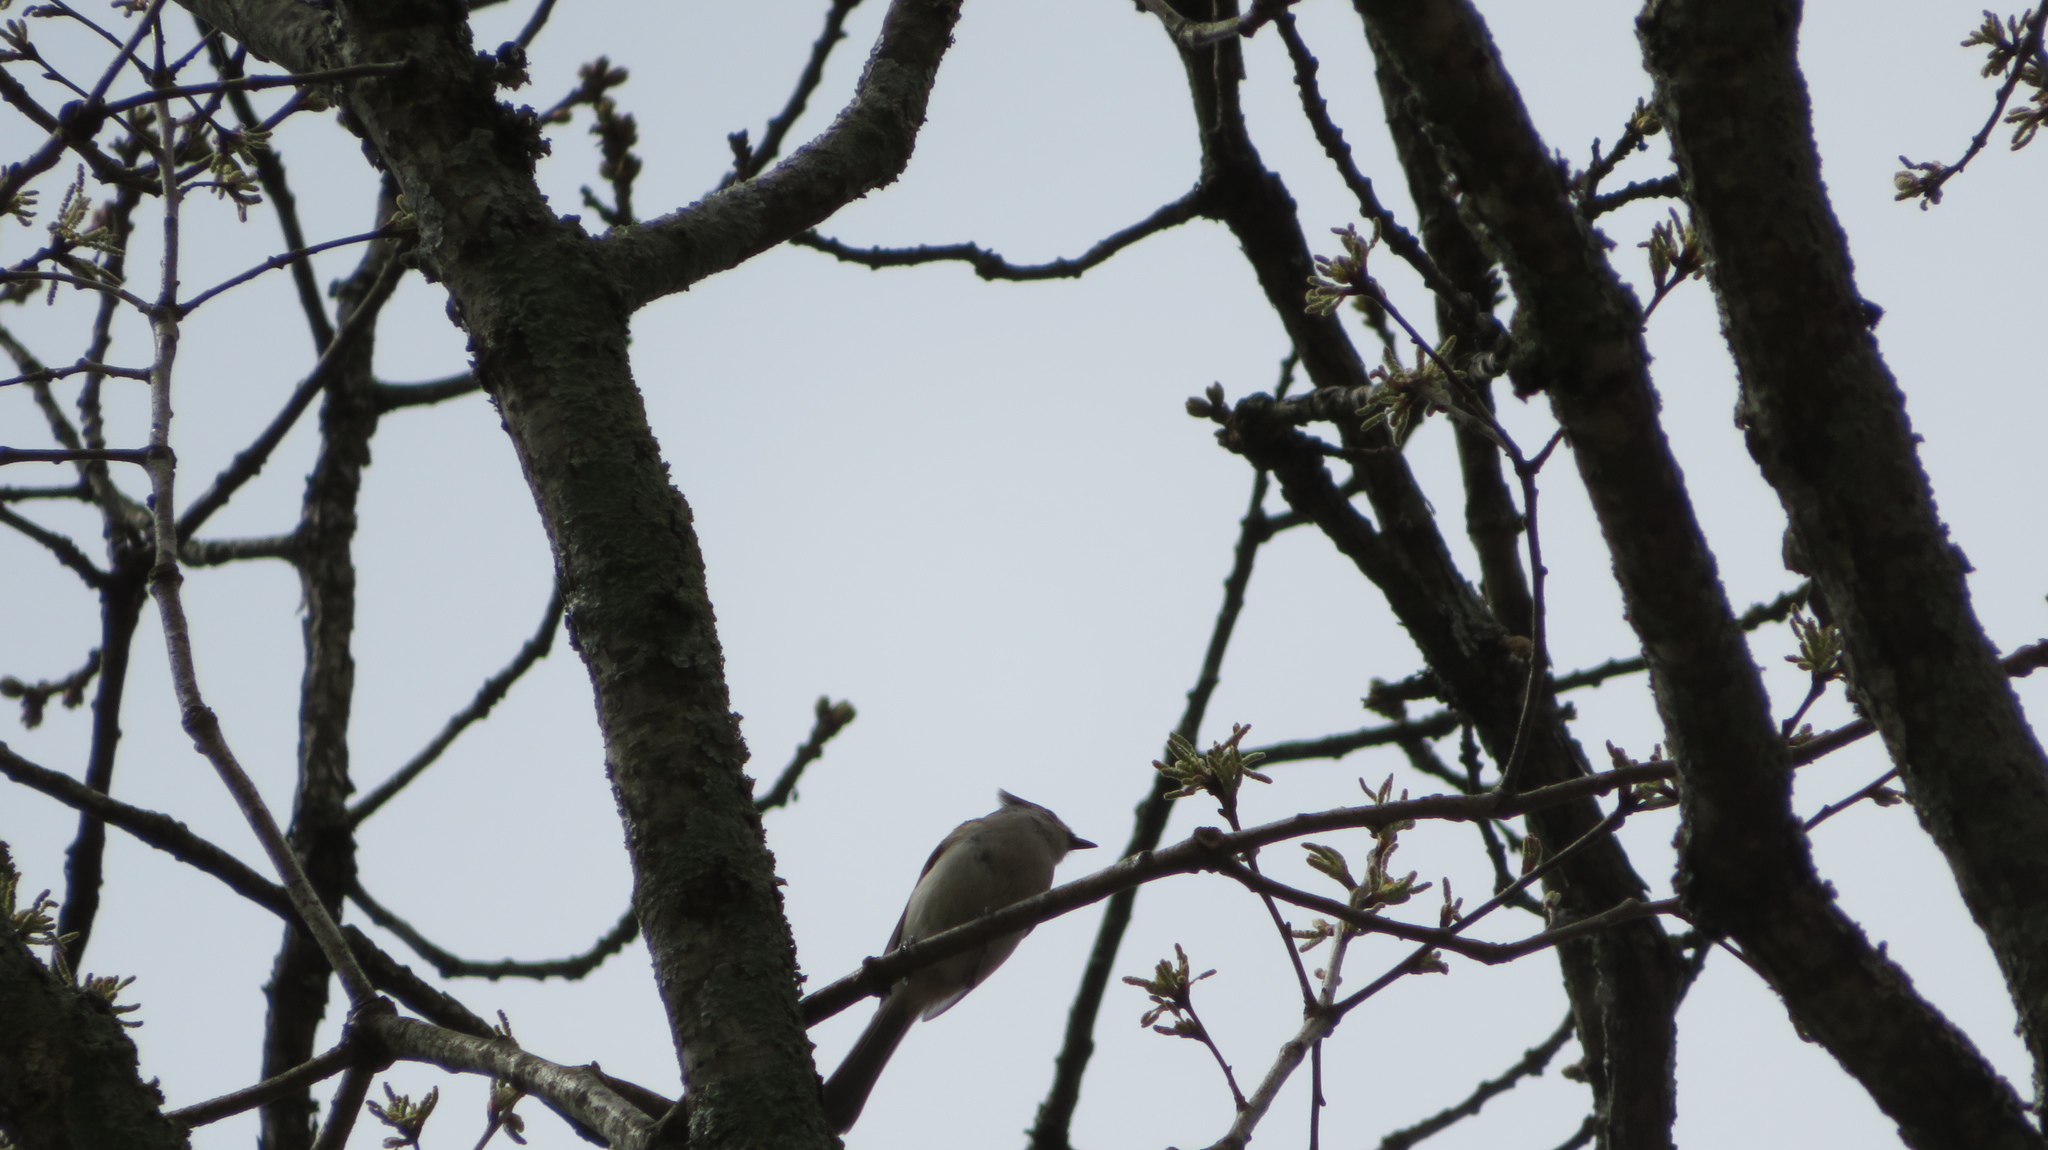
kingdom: Animalia
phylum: Chordata
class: Aves
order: Passeriformes
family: Paridae
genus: Baeolophus
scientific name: Baeolophus bicolor
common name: Tufted titmouse
